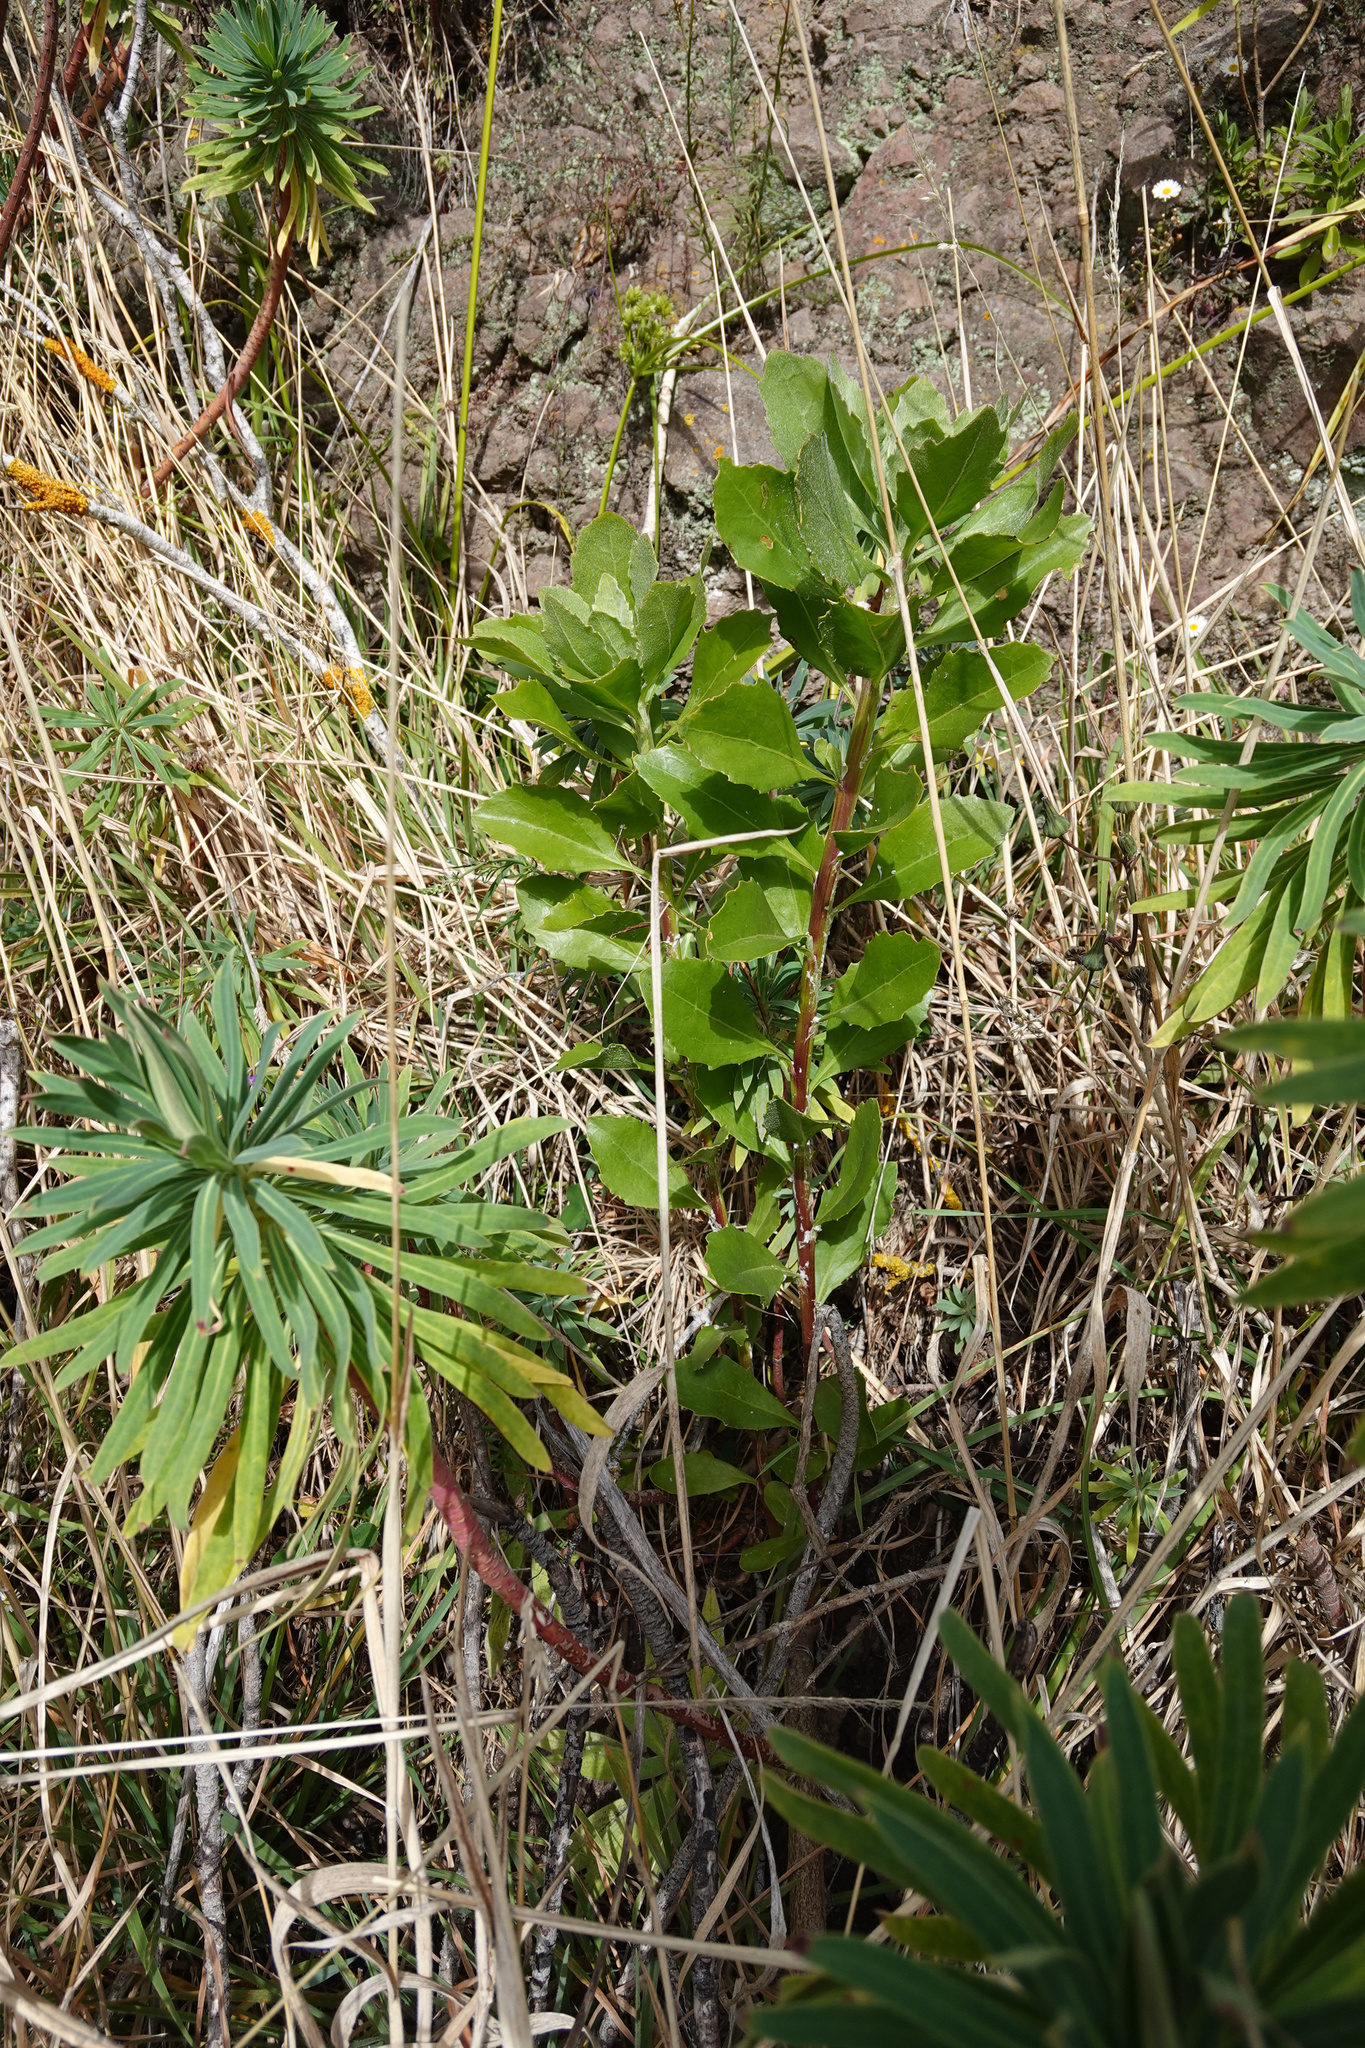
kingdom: Plantae
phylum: Tracheophyta
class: Magnoliopsida
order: Asterales
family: Asteraceae
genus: Osteospermum
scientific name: Osteospermum moniliferum
